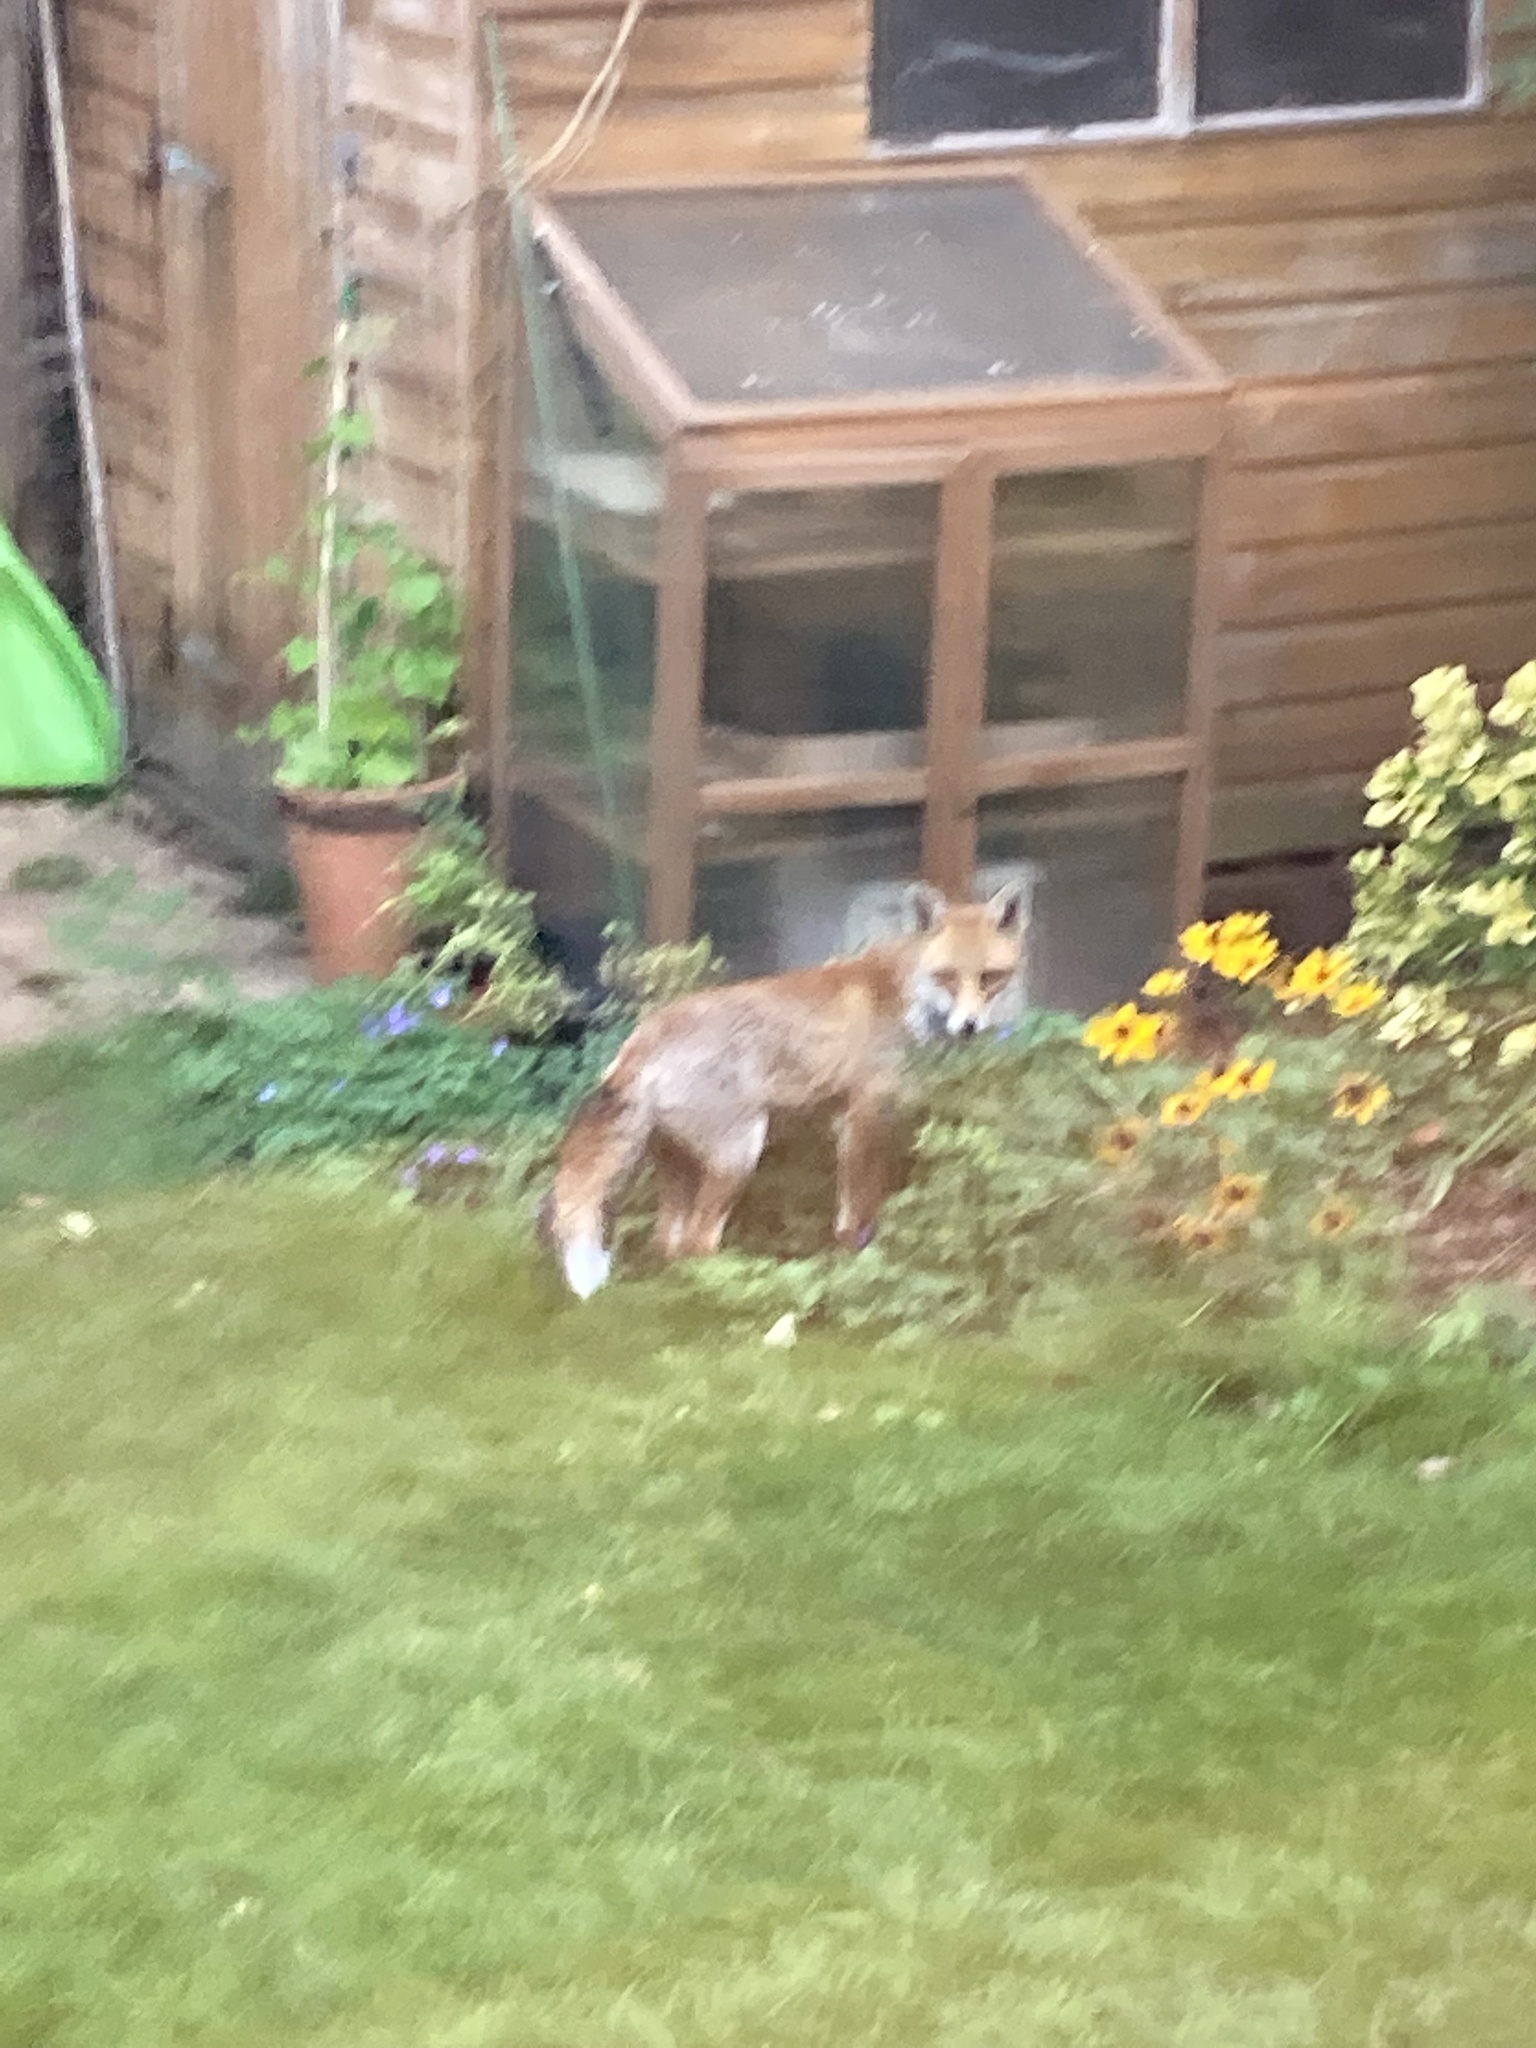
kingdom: Animalia
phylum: Chordata
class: Mammalia
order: Carnivora
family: Canidae
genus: Vulpes
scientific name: Vulpes vulpes
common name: Red fox
